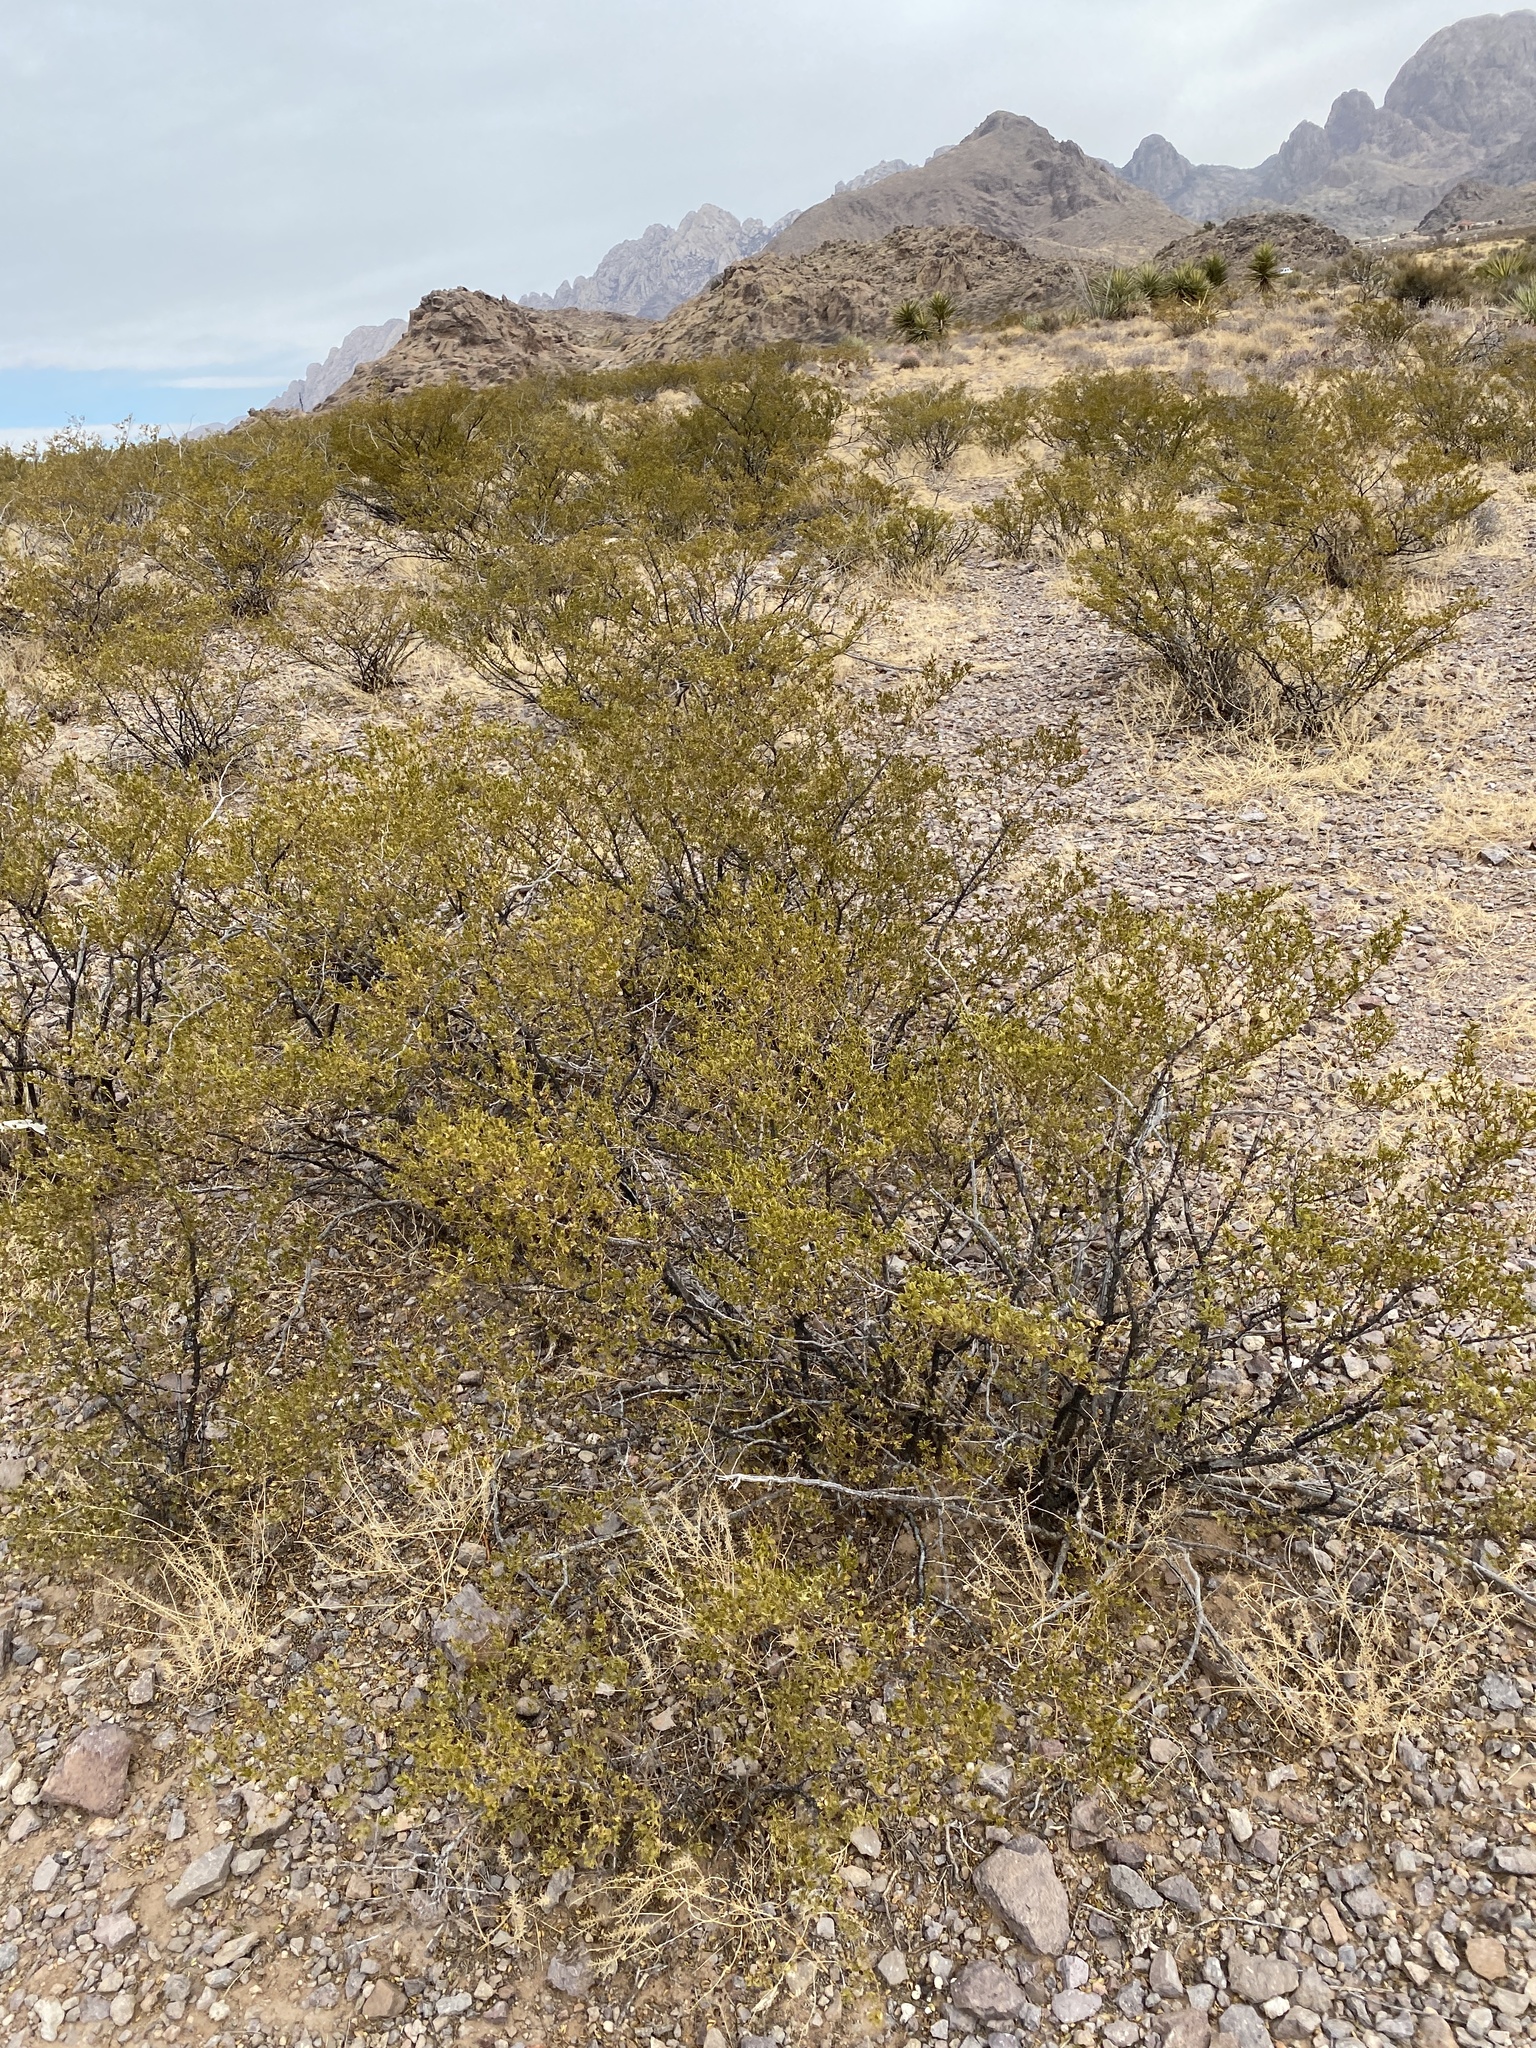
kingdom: Plantae
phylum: Tracheophyta
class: Magnoliopsida
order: Zygophyllales
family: Zygophyllaceae
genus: Larrea
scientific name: Larrea tridentata
